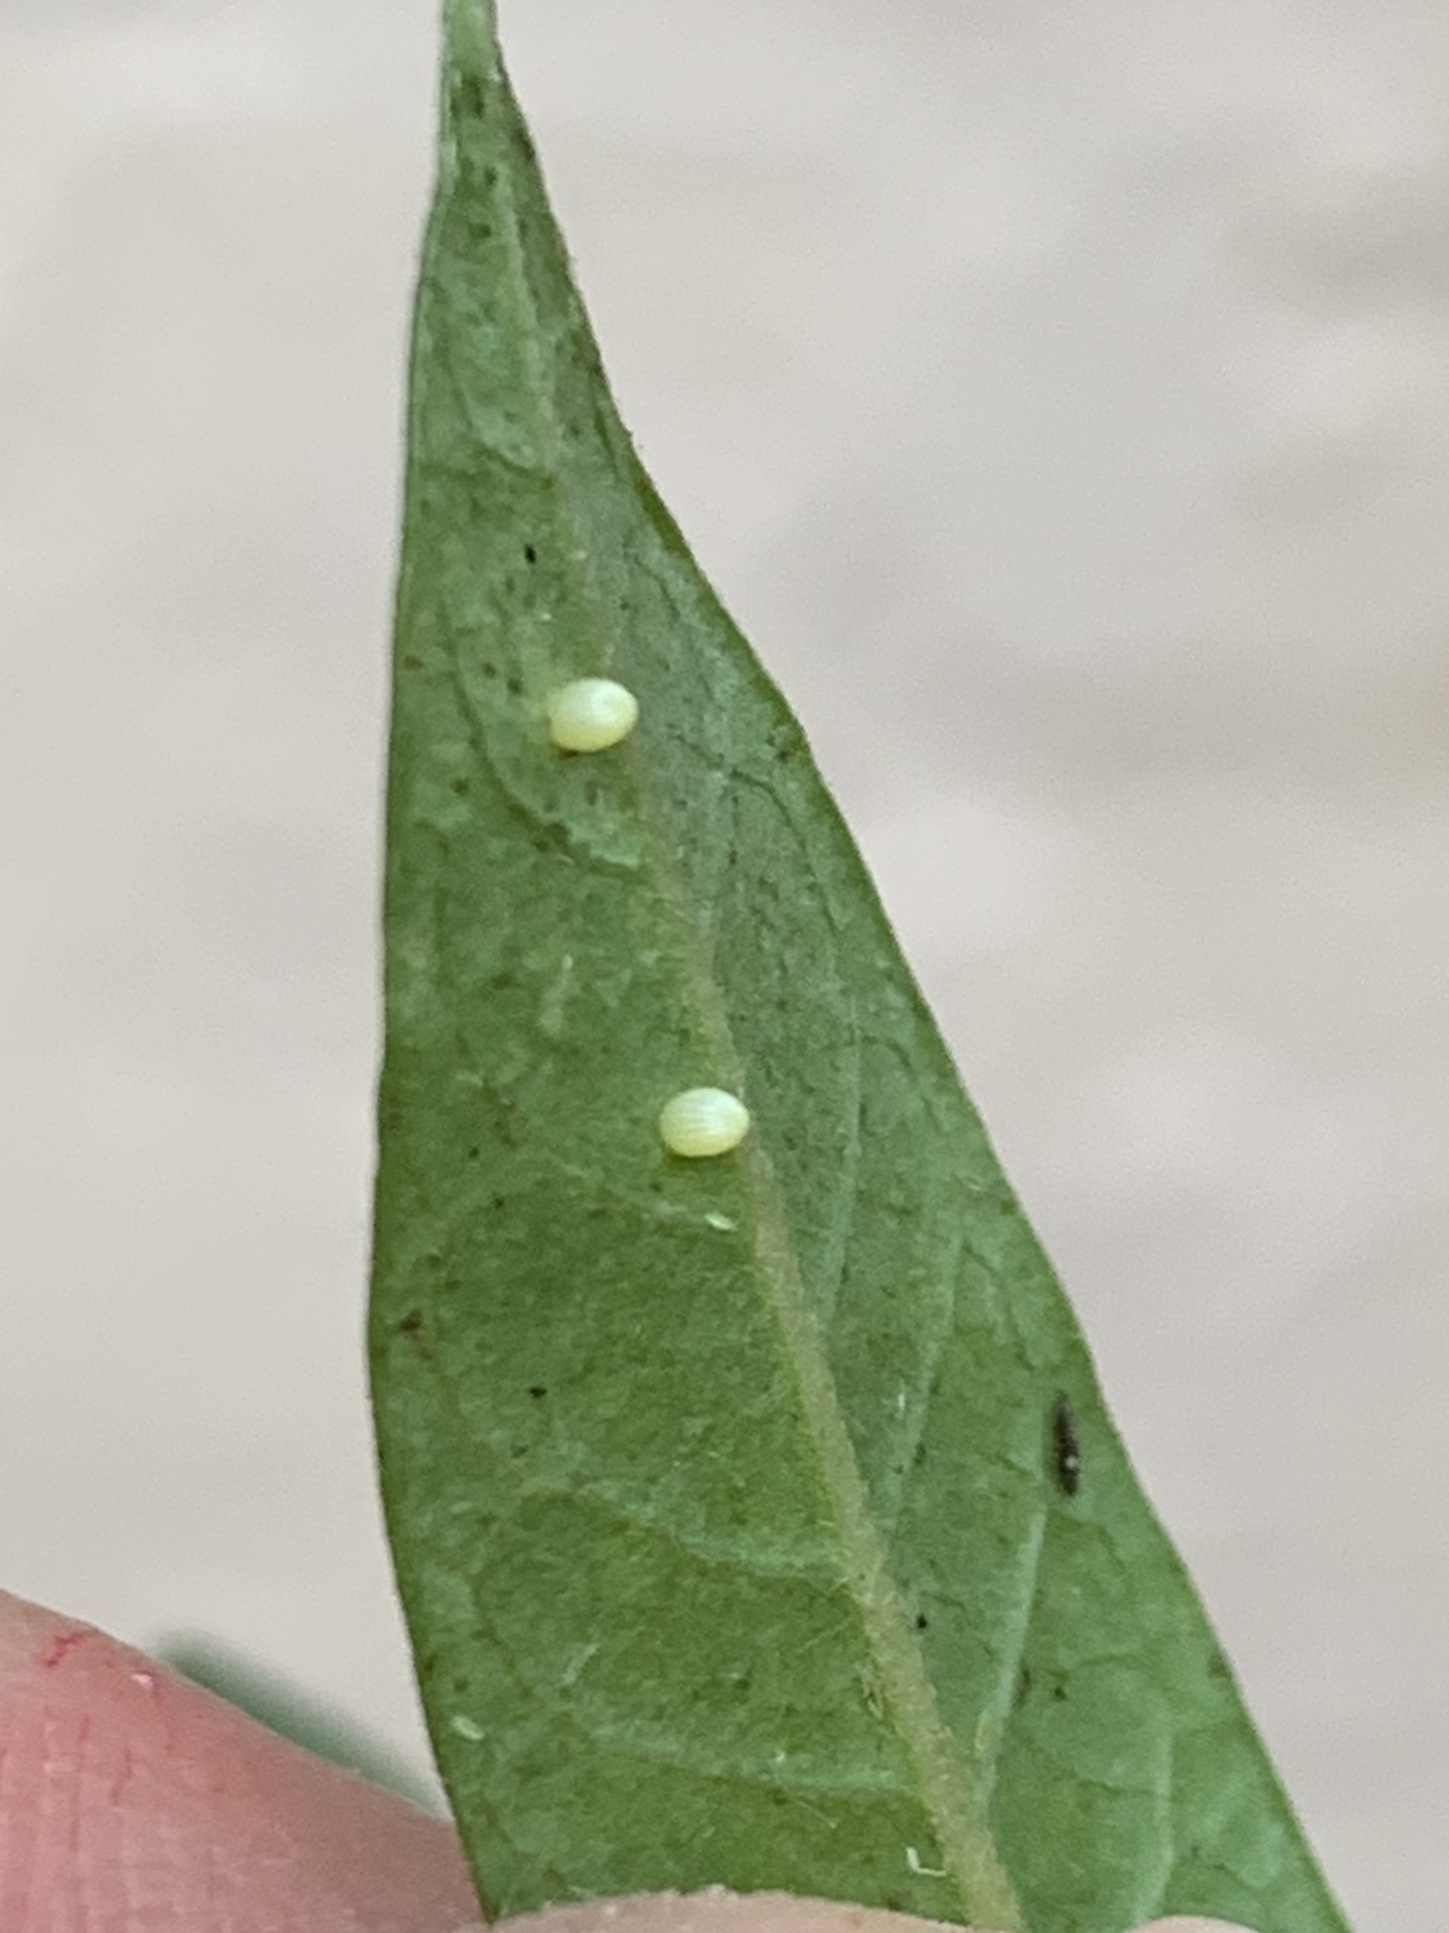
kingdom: Animalia
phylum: Arthropoda
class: Insecta
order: Lepidoptera
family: Nymphalidae
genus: Danaus
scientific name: Danaus plexippus
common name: Monarch
